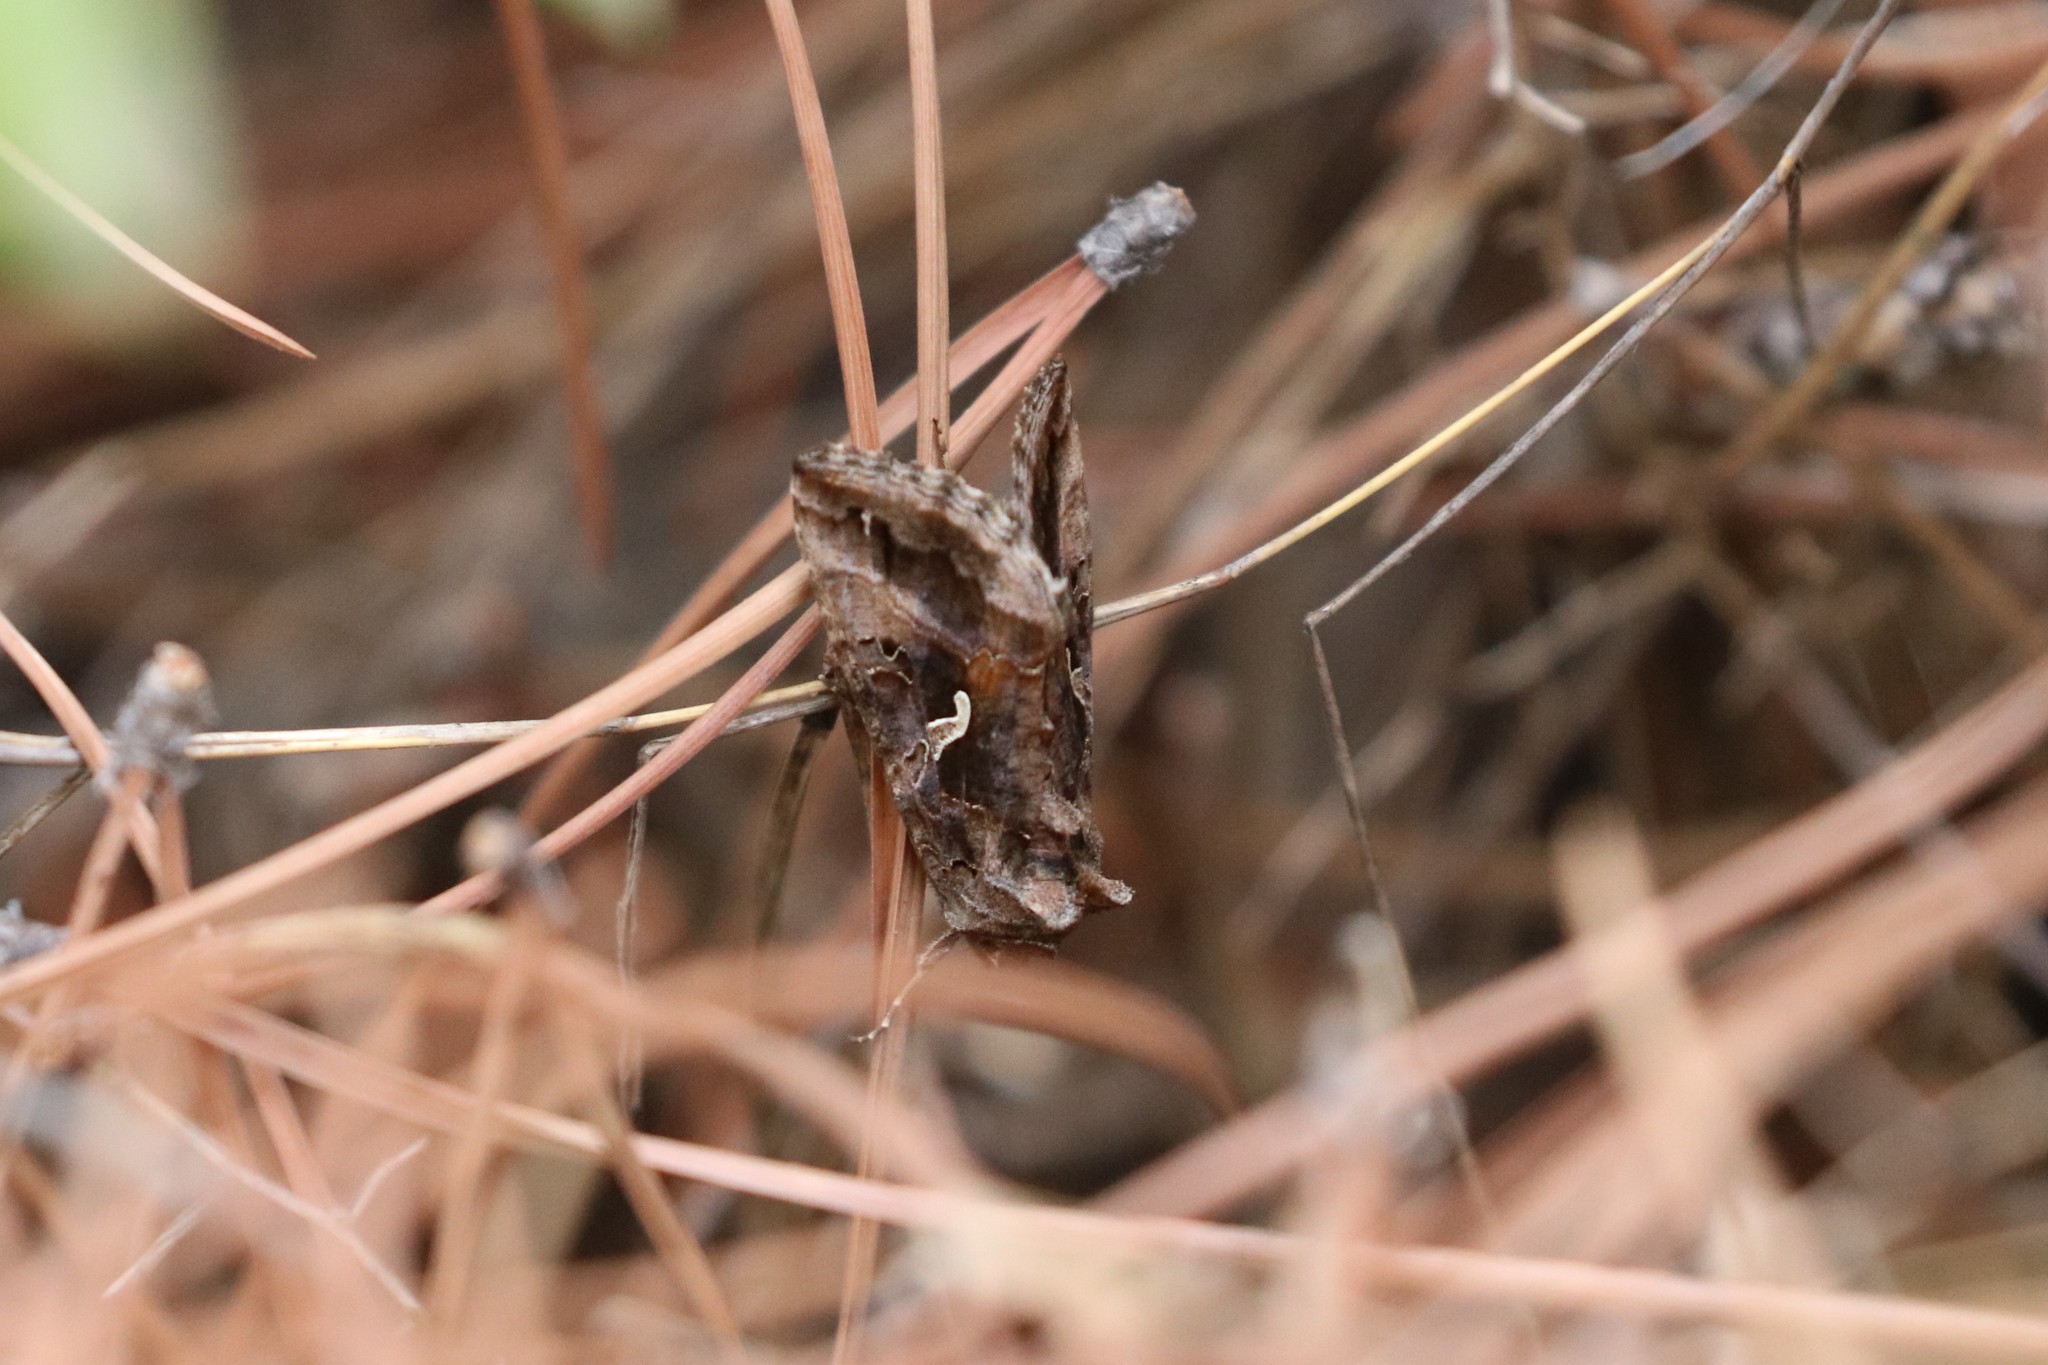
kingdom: Animalia
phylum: Arthropoda
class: Insecta
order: Lepidoptera
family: Noctuidae
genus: Autographa
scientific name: Autographa gamma
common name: Silver y
